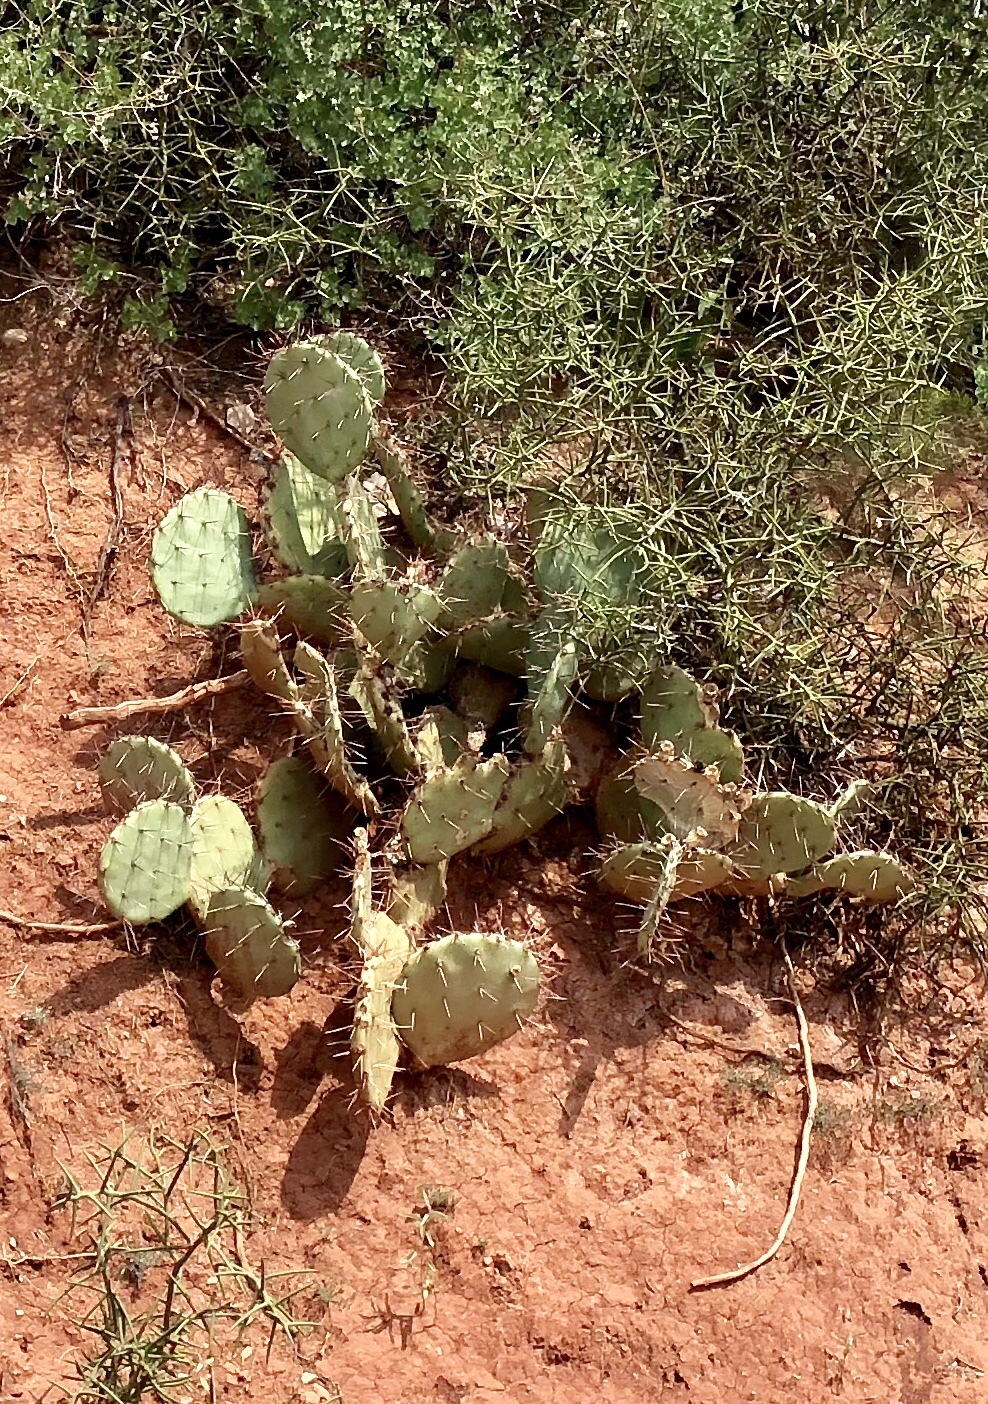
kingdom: Plantae
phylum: Tracheophyta
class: Magnoliopsida
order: Caryophyllales
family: Cactaceae
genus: Opuntia
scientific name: Opuntia phaeacantha
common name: New mexico prickly-pear
